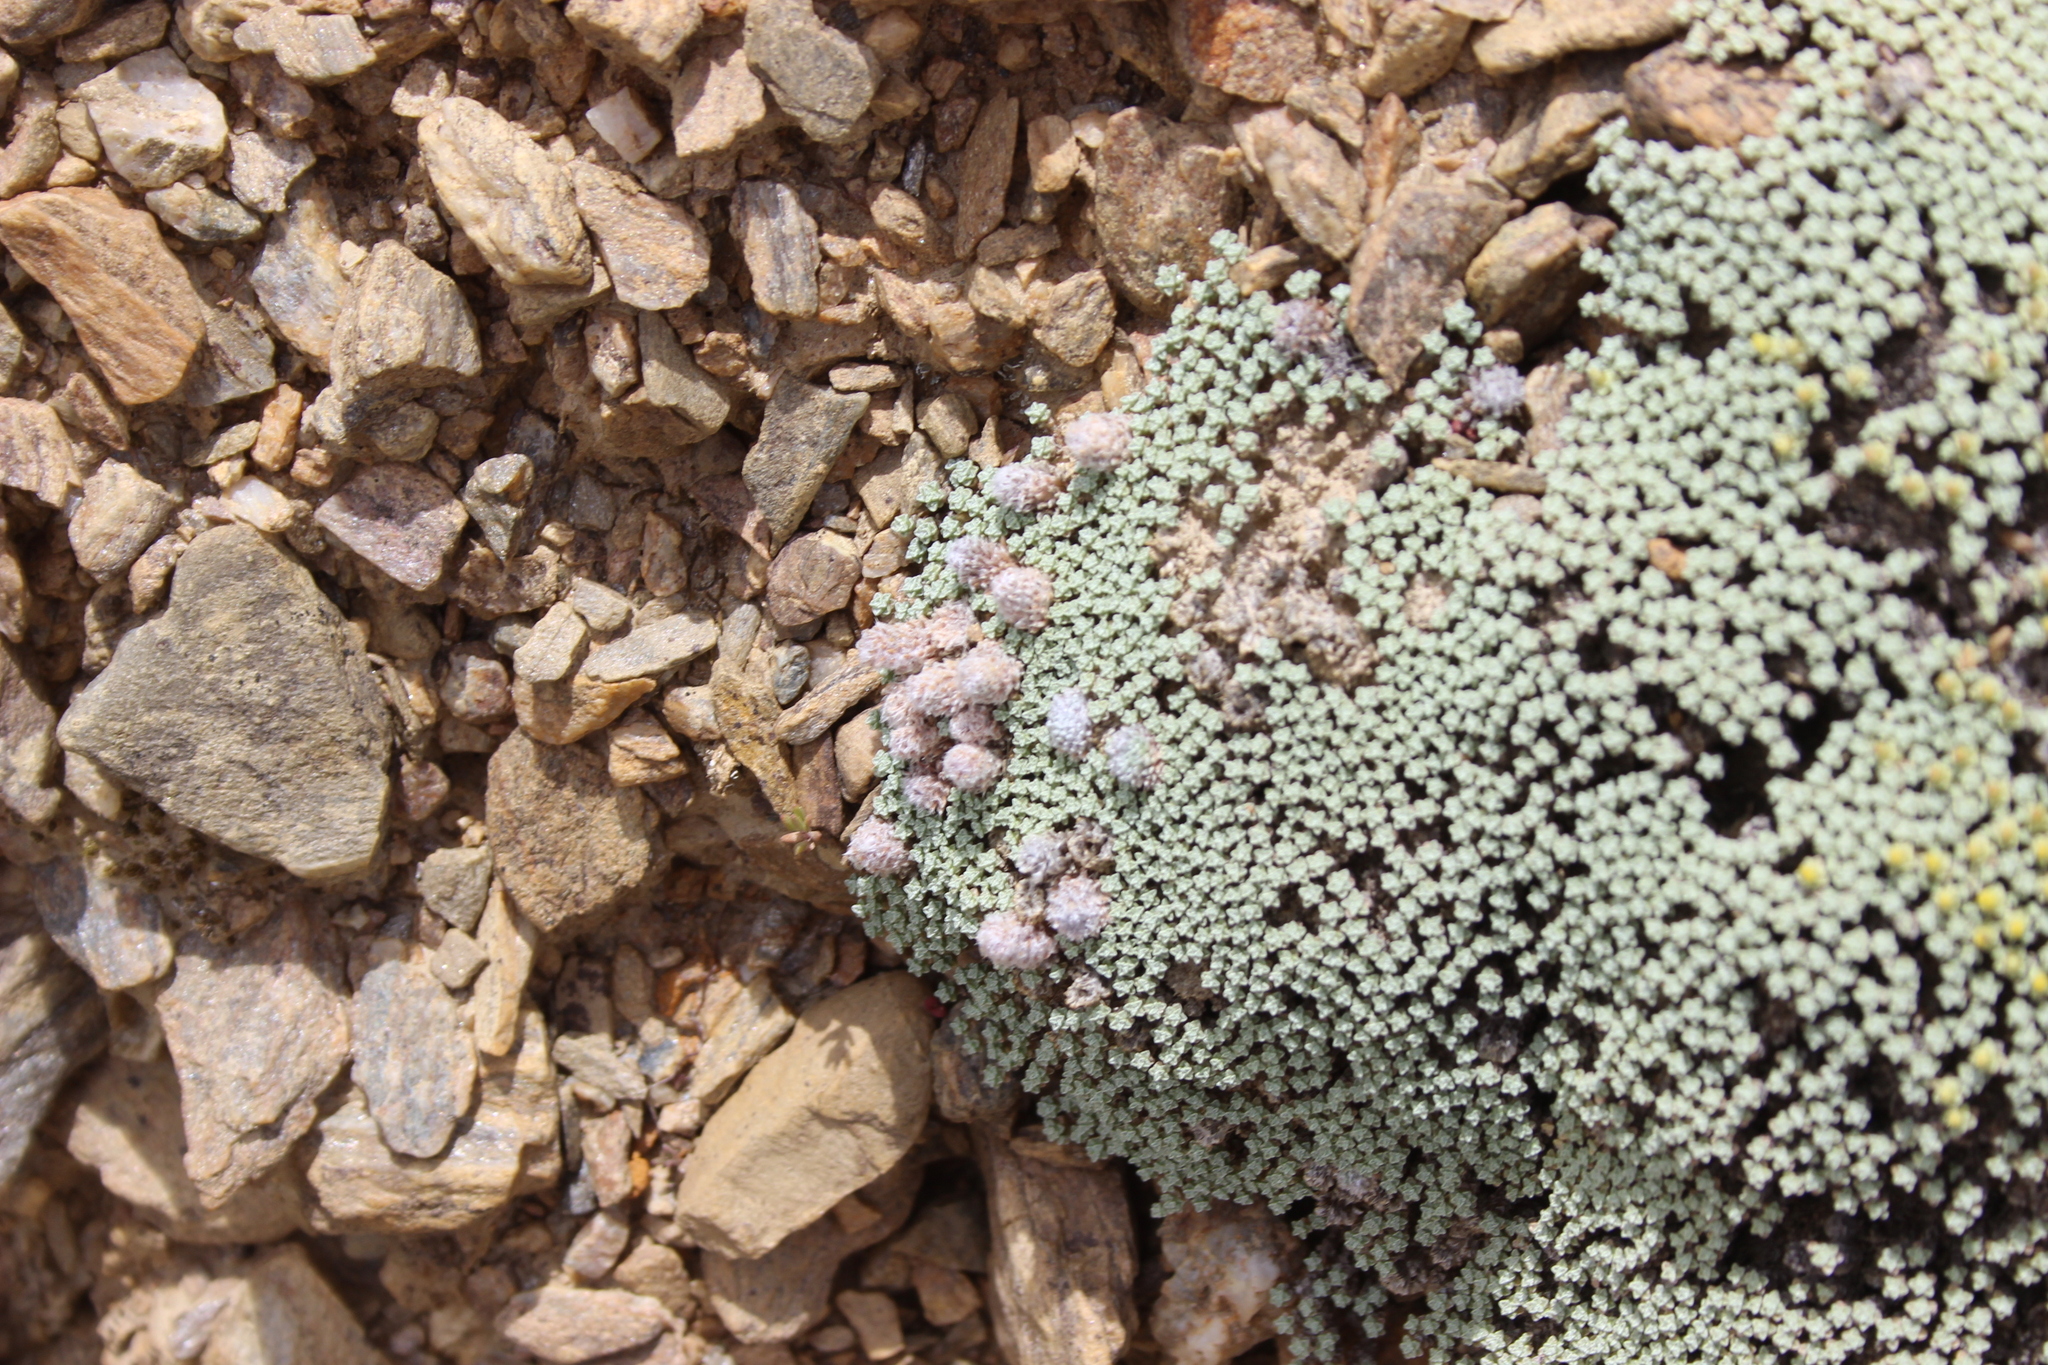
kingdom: Plantae
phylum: Tracheophyta
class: Magnoliopsida
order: Asterales
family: Asteraceae
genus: Raoulia
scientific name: Raoulia australis
